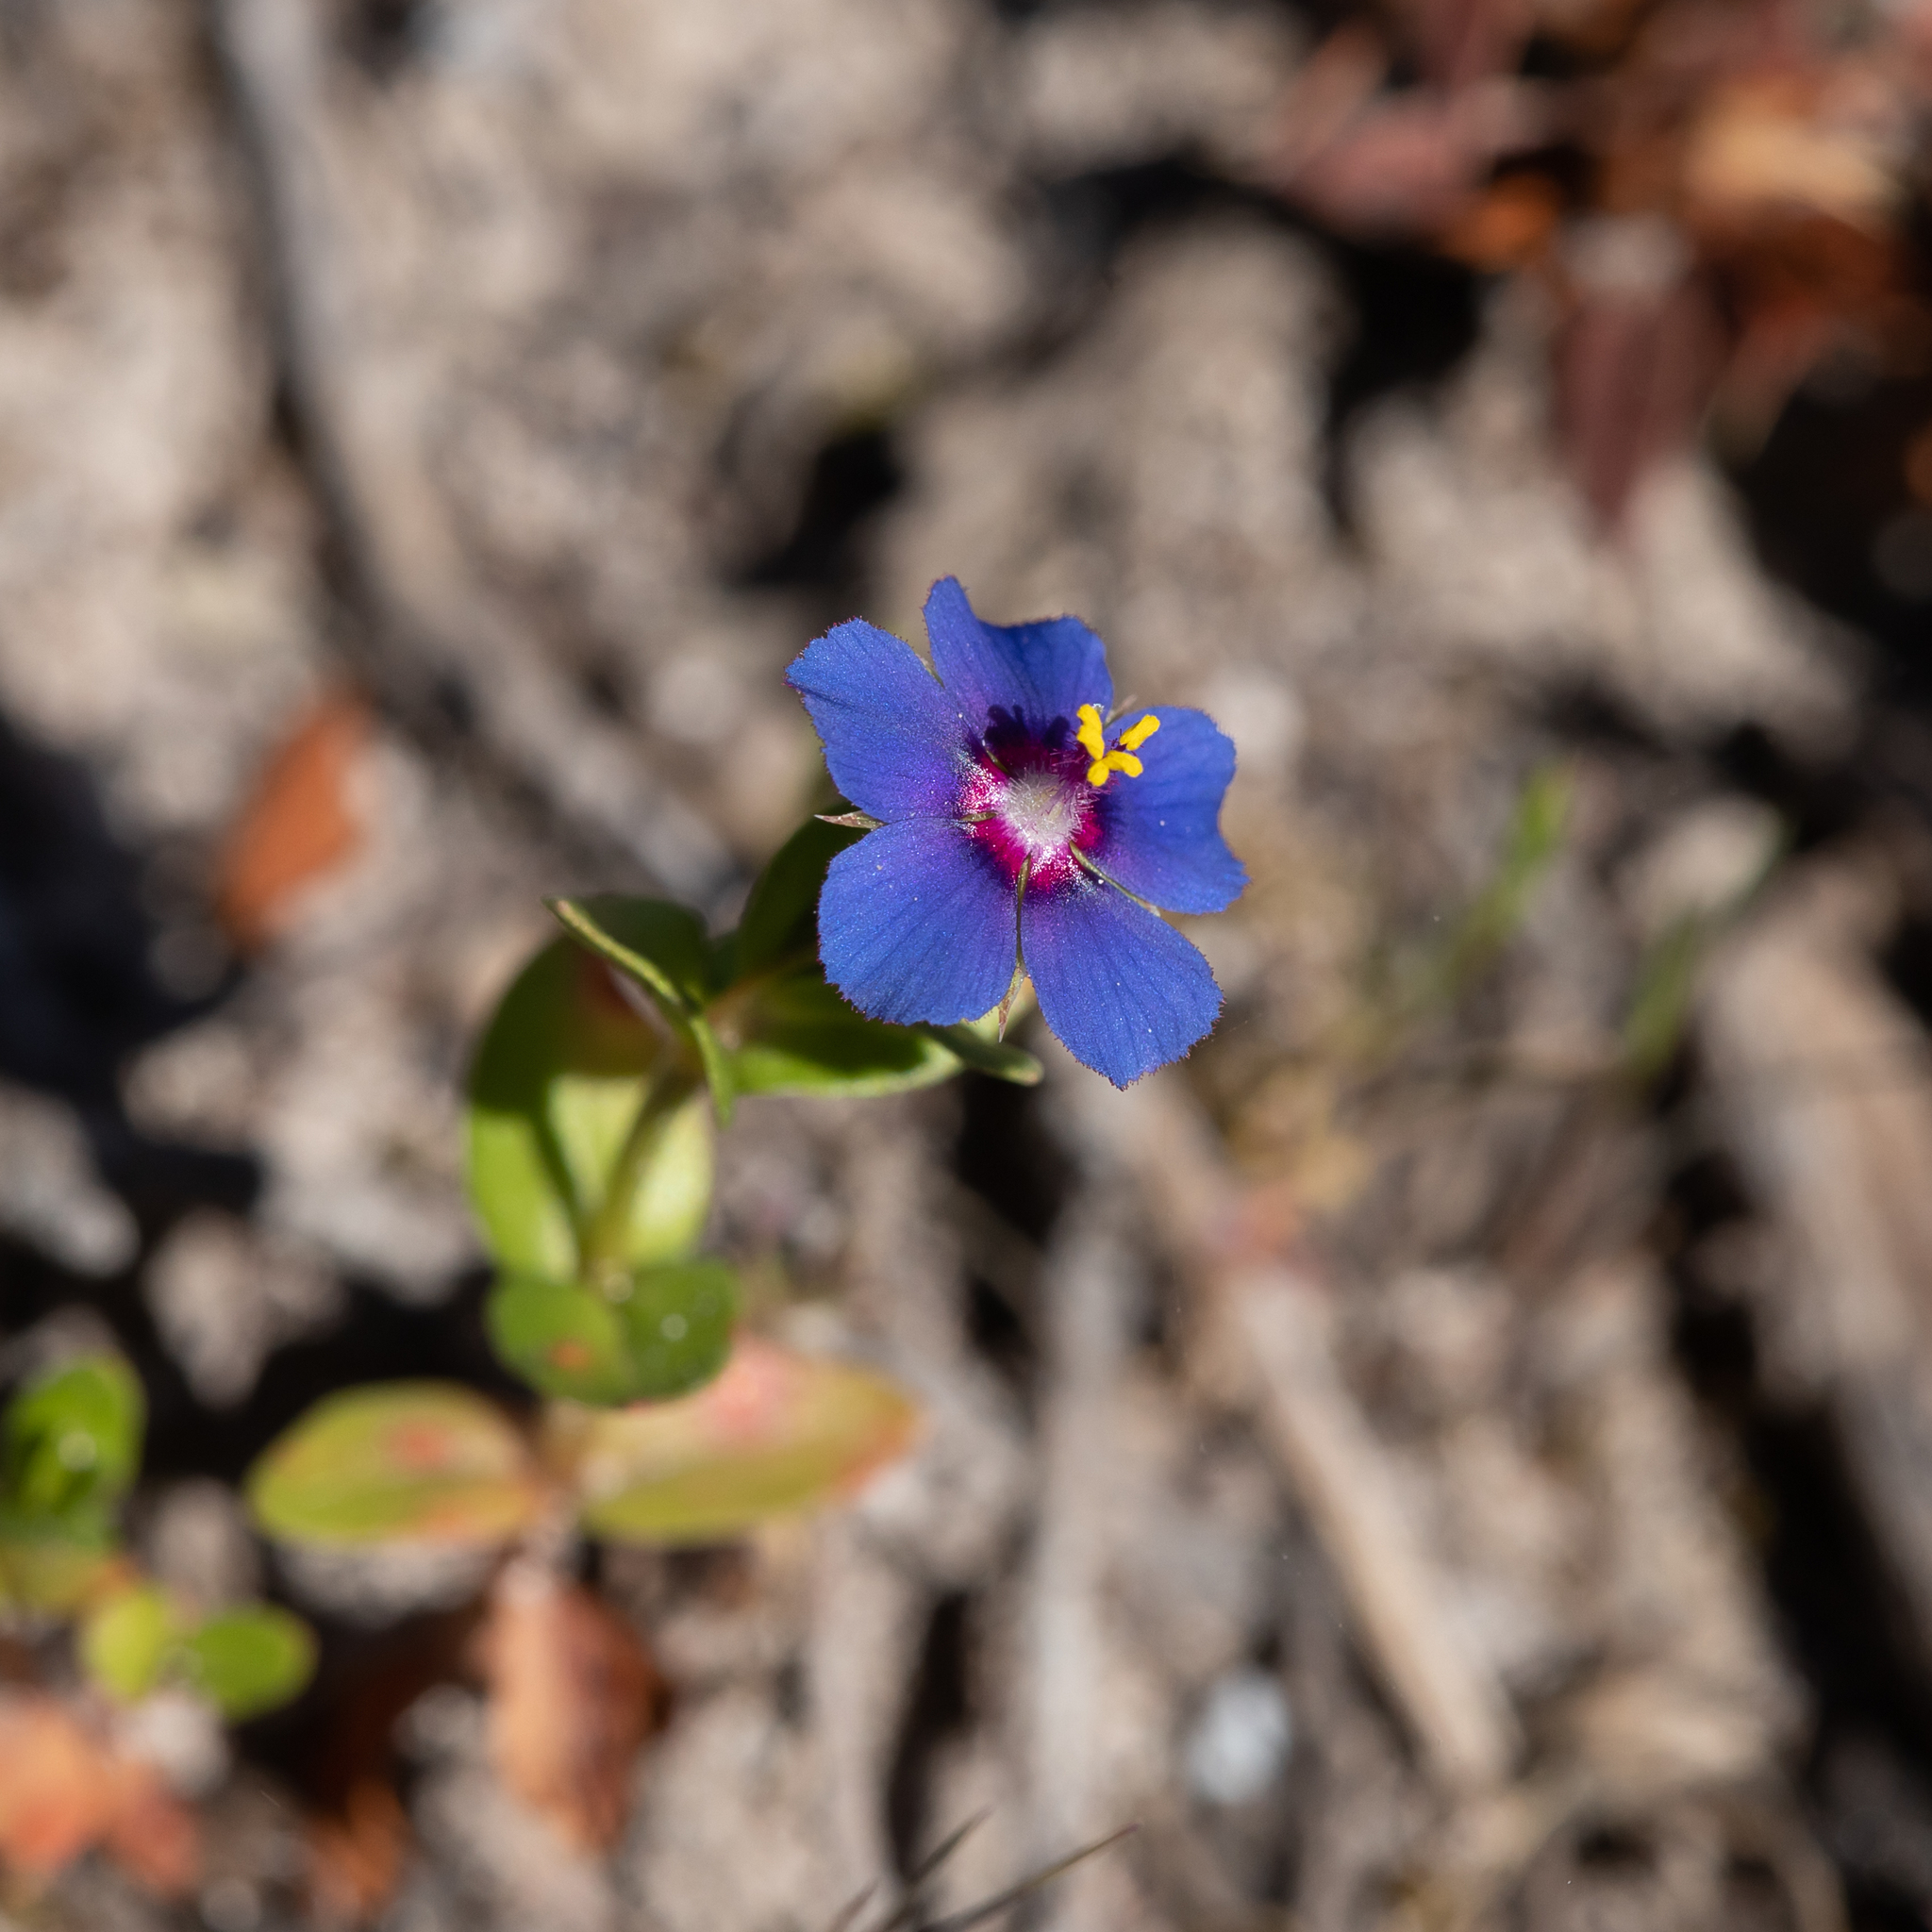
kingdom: Plantae
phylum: Tracheophyta
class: Magnoliopsida
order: Ericales
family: Primulaceae
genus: Lysimachia
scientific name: Lysimachia loeflingii
